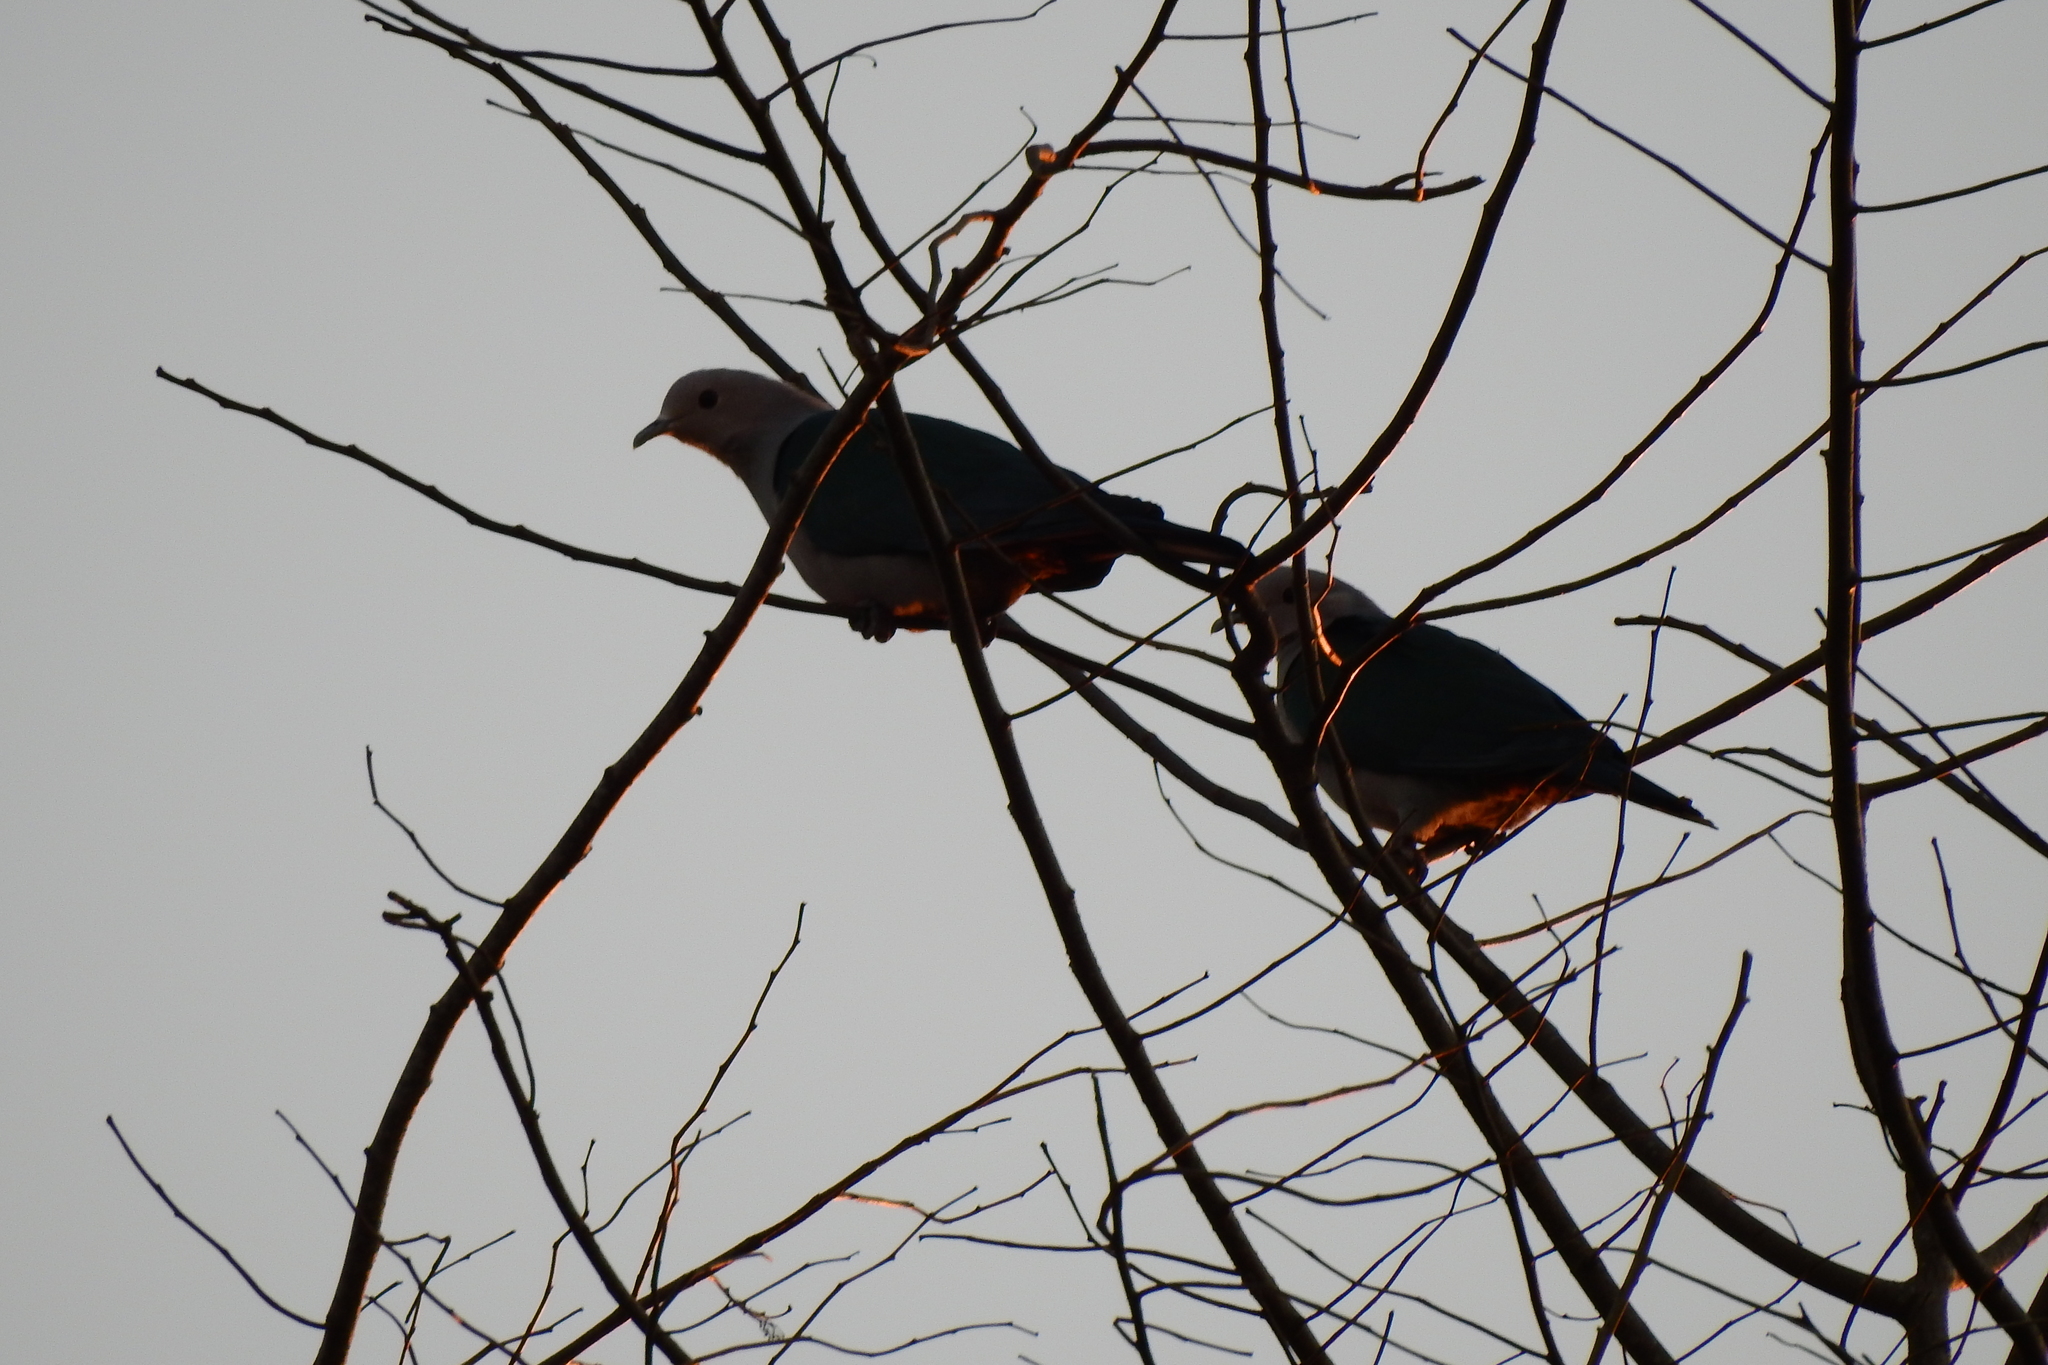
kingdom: Animalia
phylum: Chordata
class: Aves
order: Columbiformes
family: Columbidae
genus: Ducula
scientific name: Ducula aenea
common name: Green imperial pigeon
